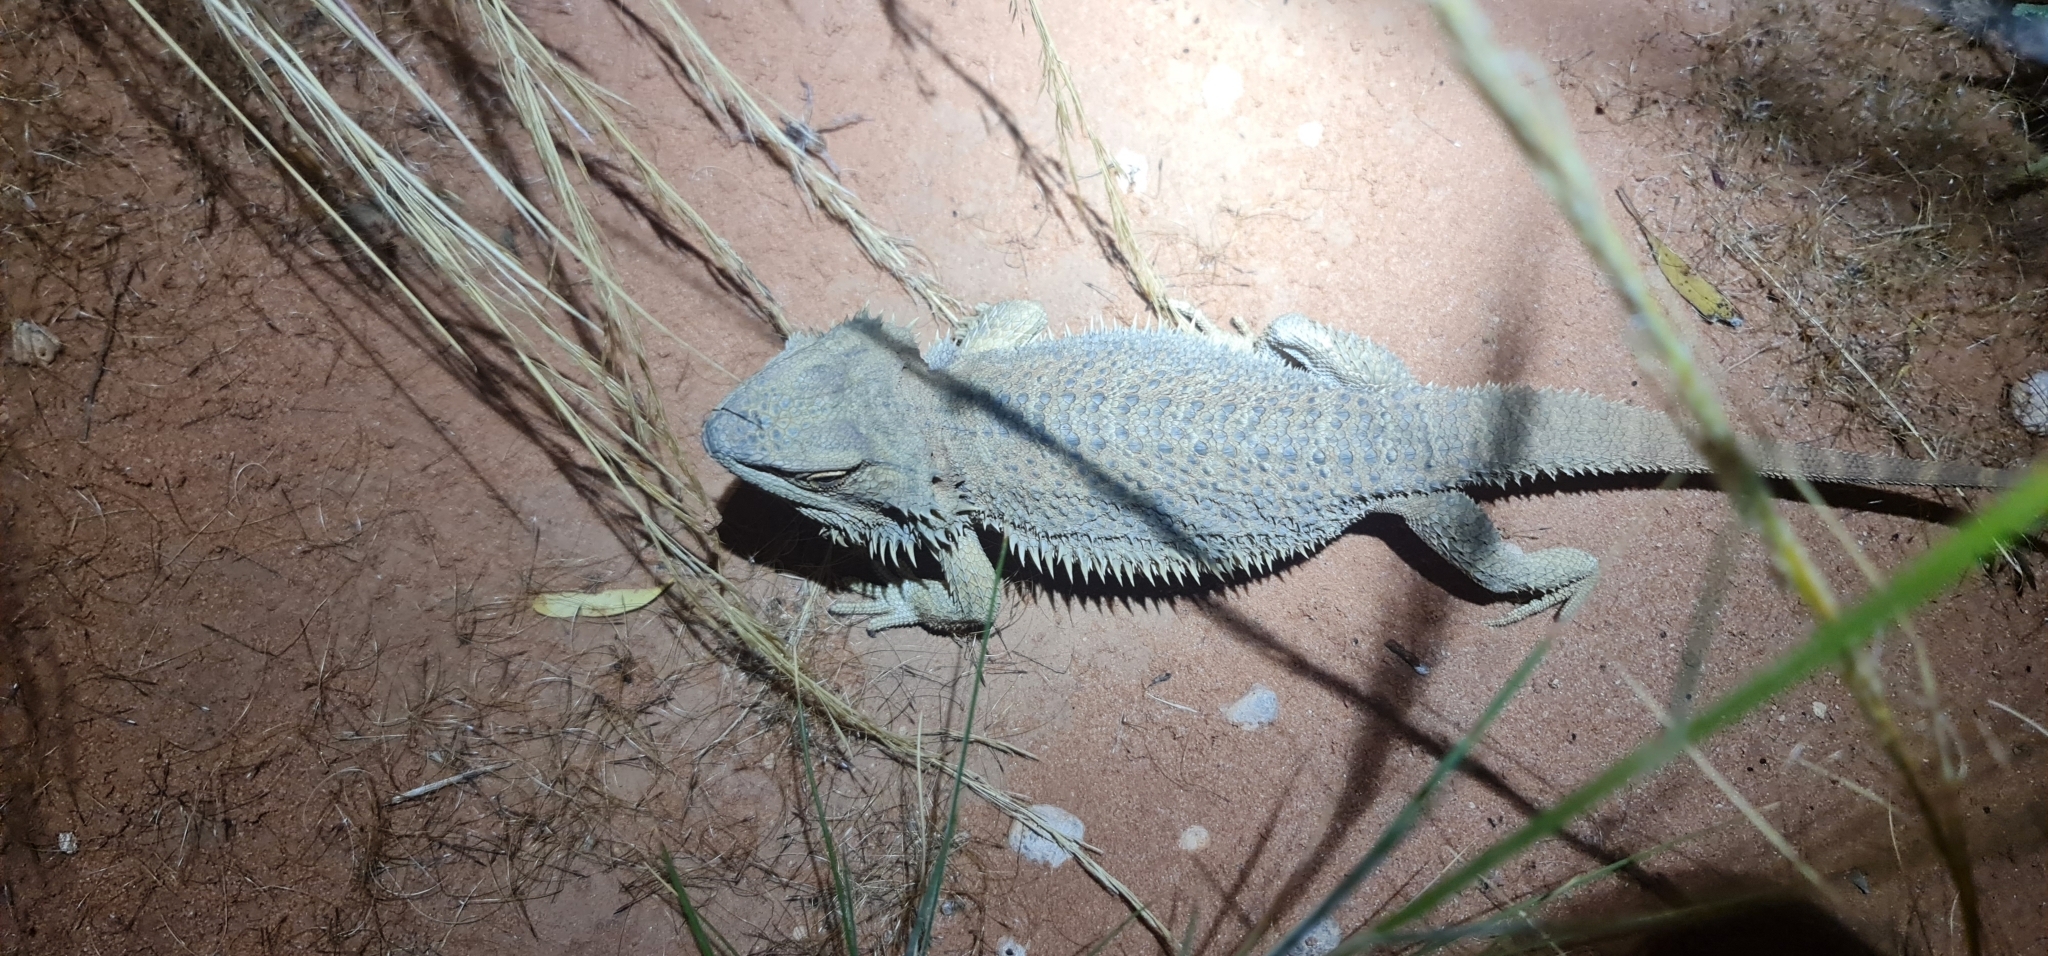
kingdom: Animalia
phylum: Chordata
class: Squamata
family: Agamidae
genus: Pogona
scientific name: Pogona vitticeps
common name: Central bearded dragon
